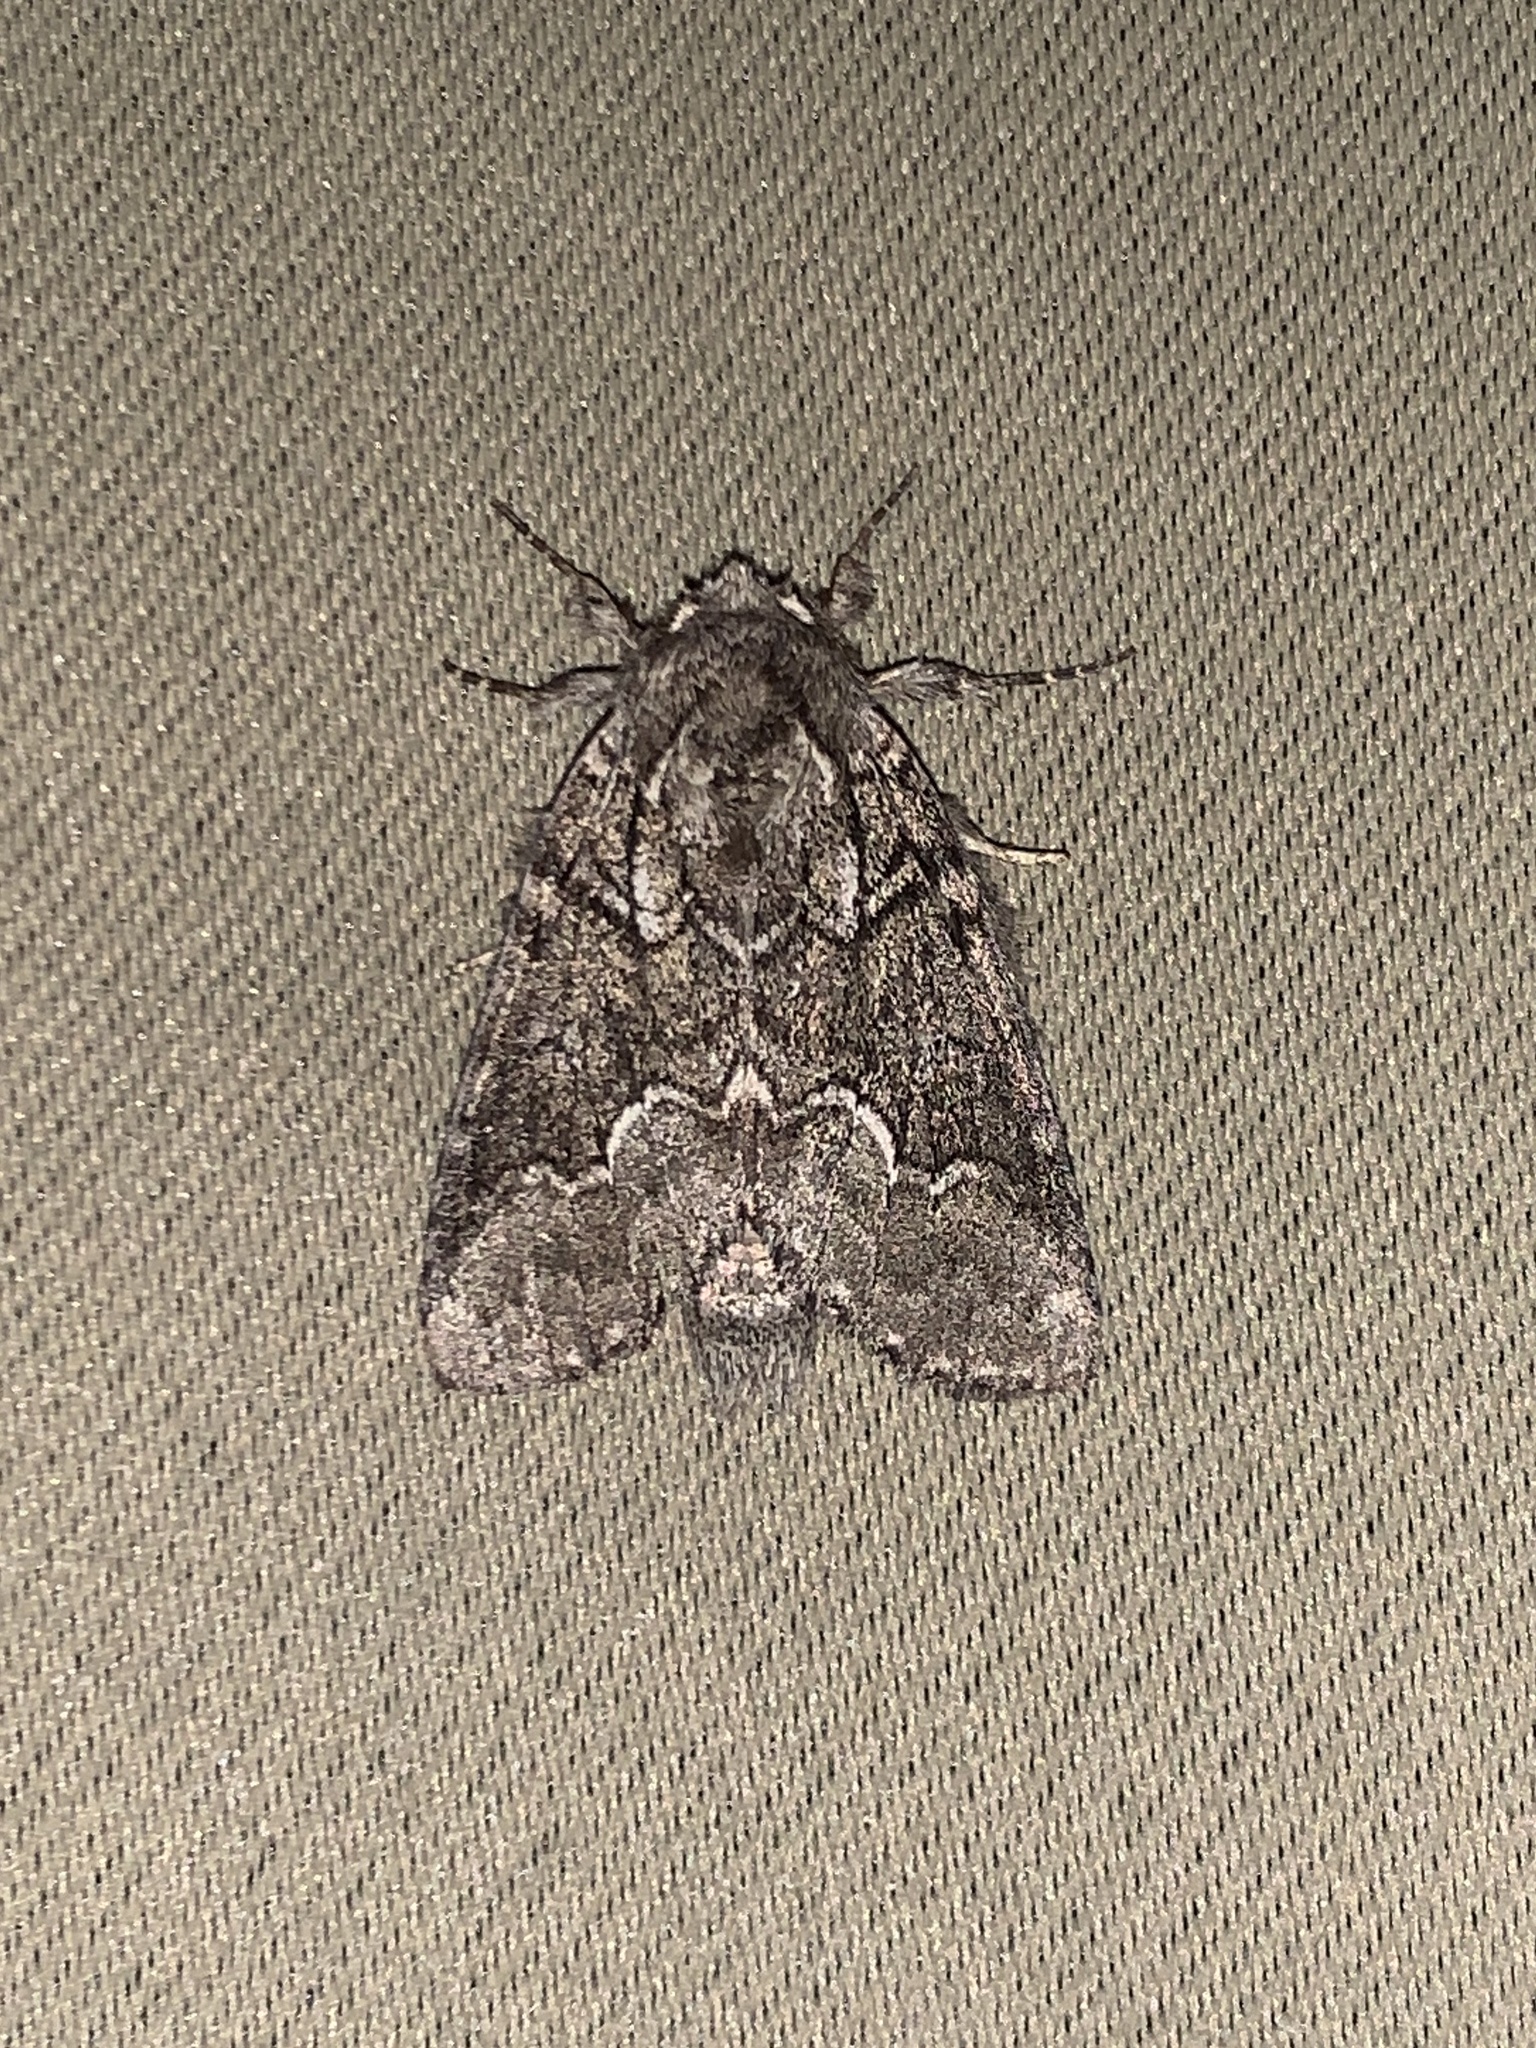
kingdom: Animalia
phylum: Arthropoda
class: Insecta
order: Lepidoptera
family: Notodontidae
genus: Lochmaeus
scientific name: Lochmaeus bilineata
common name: Double-lined prominent
